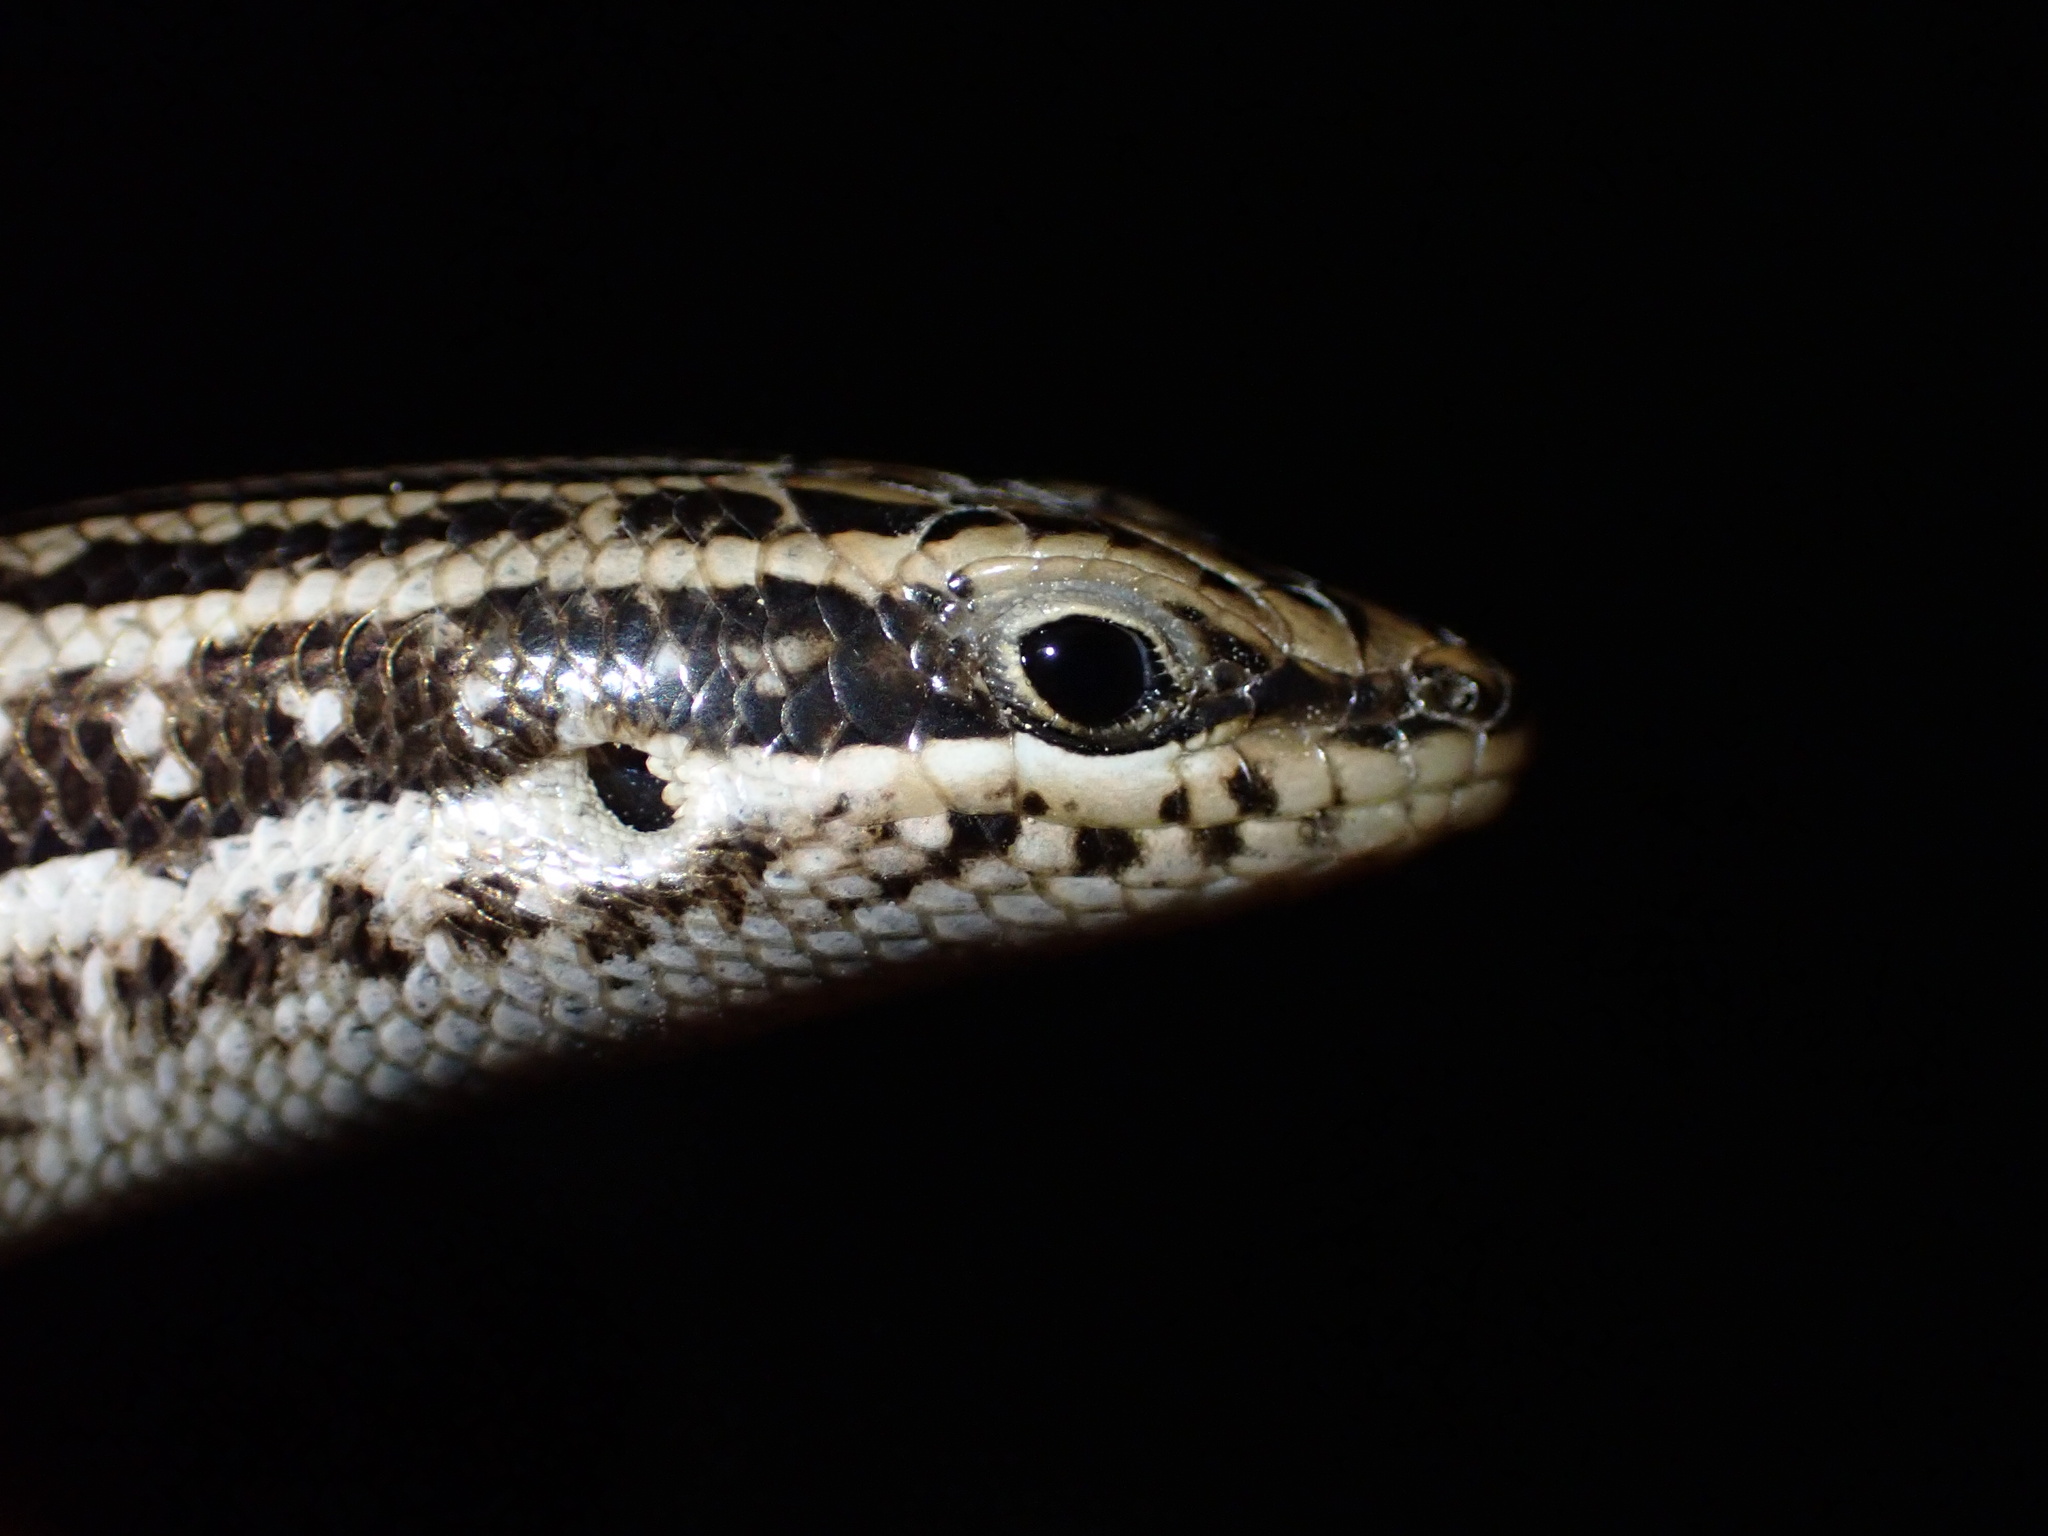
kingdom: Animalia
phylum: Chordata
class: Squamata
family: Scincidae
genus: Heremites
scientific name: Heremites septemtaeniatus
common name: Golden grass mabuya
